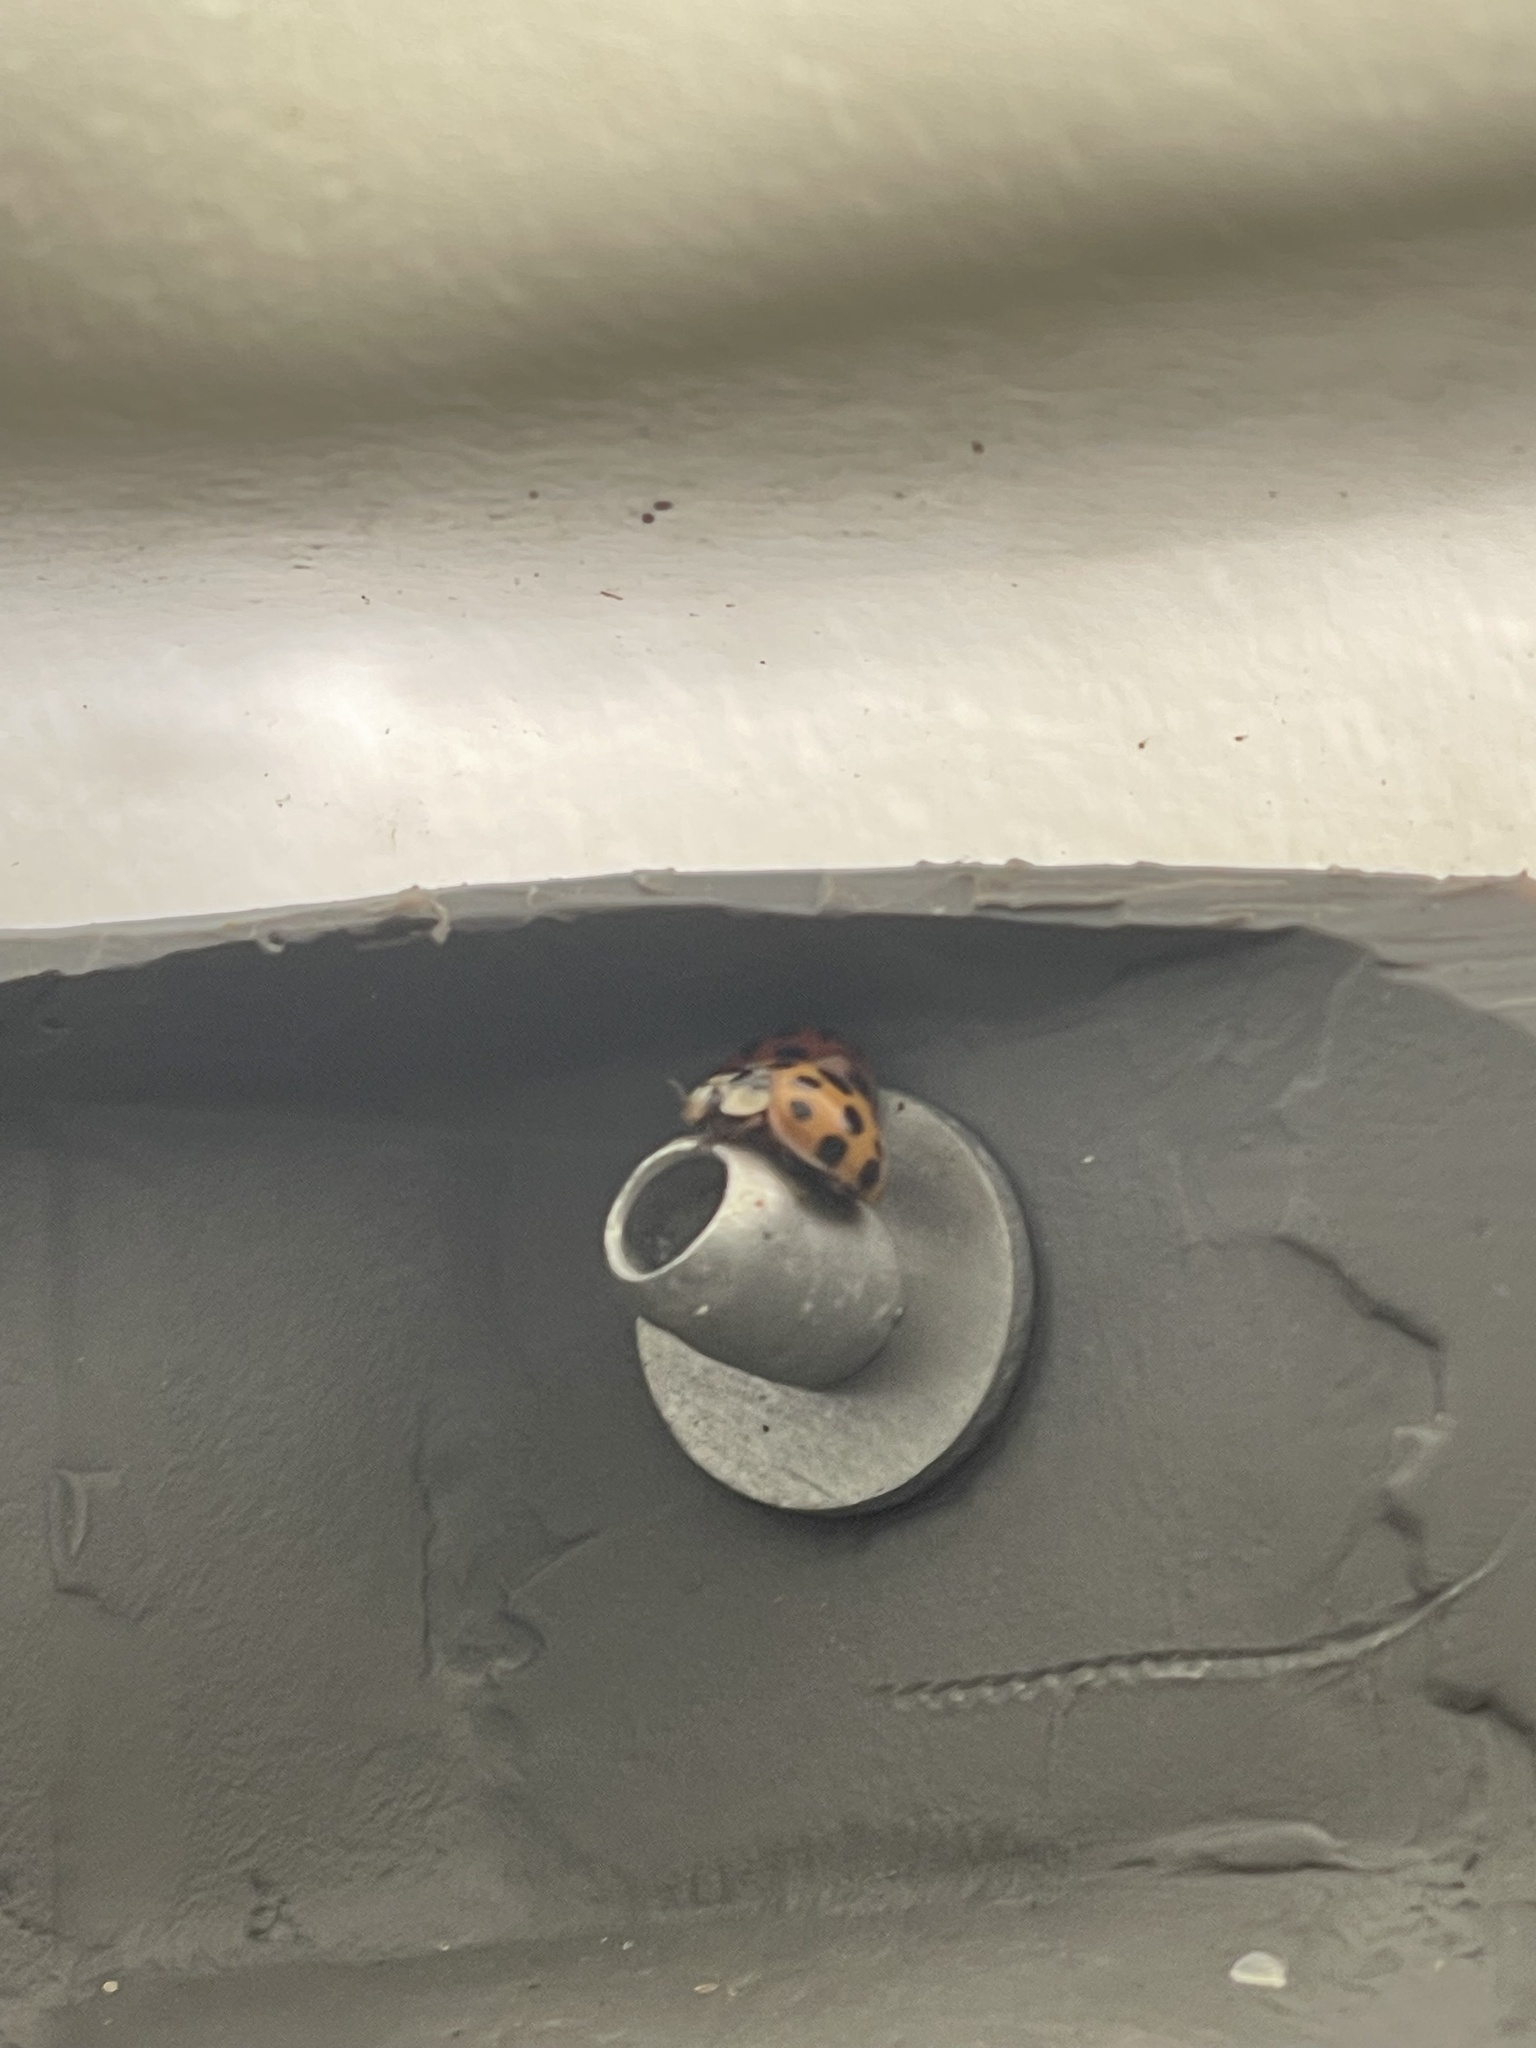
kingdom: Animalia
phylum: Arthropoda
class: Insecta
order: Coleoptera
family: Coccinellidae
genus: Harmonia
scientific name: Harmonia axyridis
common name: Harlequin ladybird
